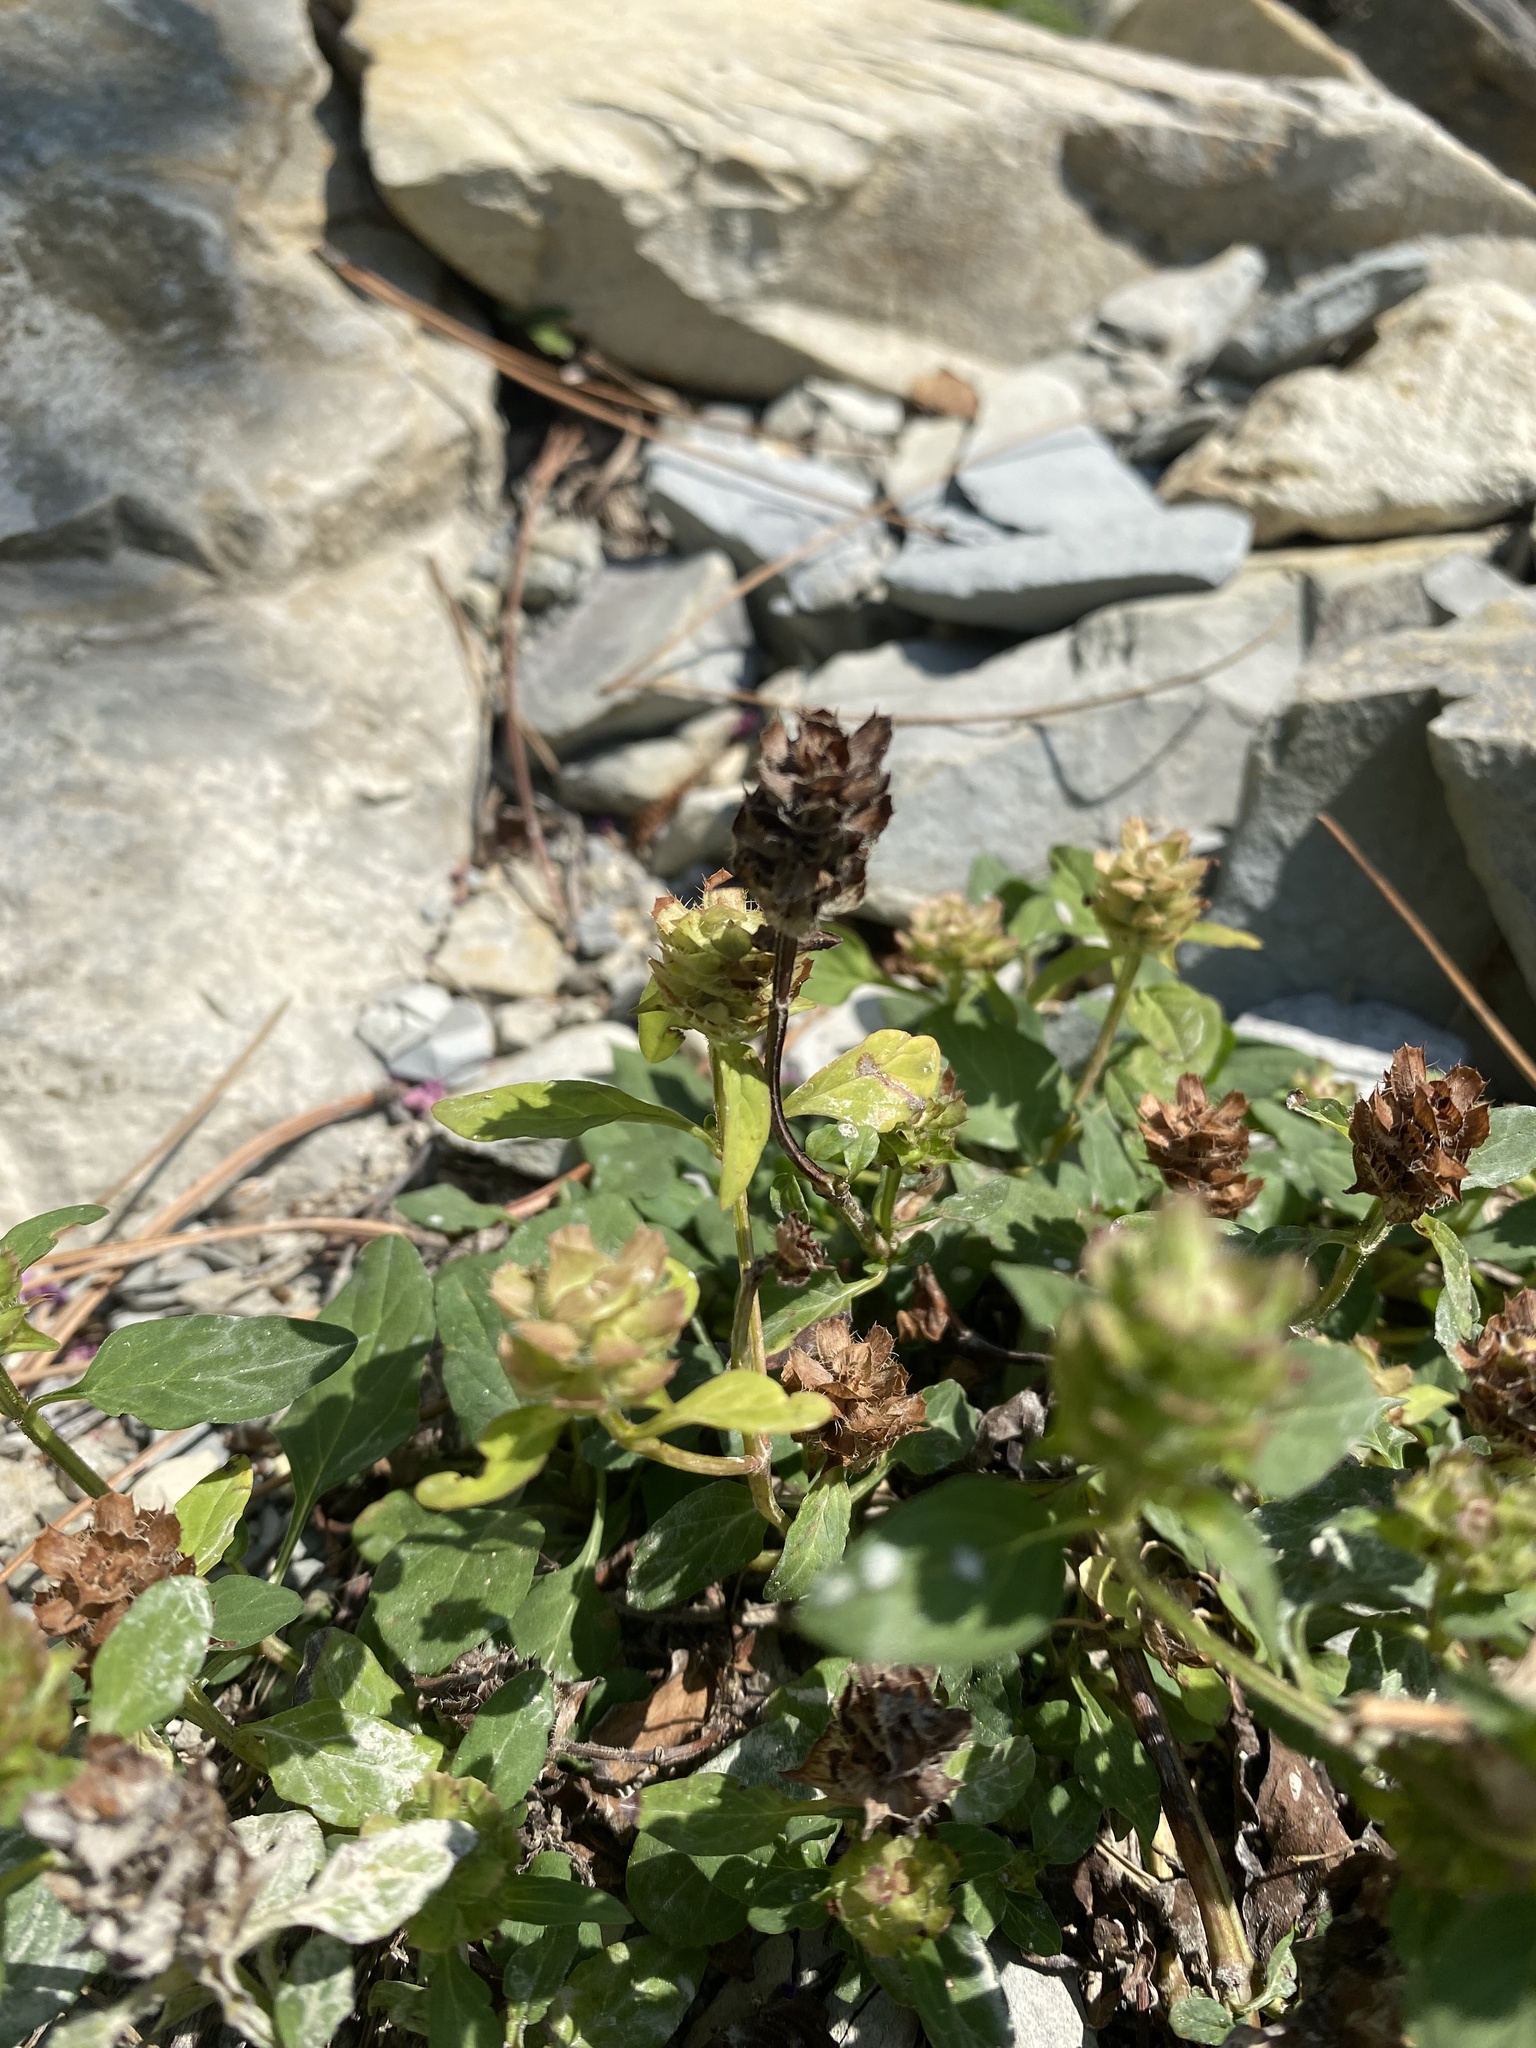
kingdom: Plantae
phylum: Tracheophyta
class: Magnoliopsida
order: Lamiales
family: Lamiaceae
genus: Prunella
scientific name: Prunella vulgaris
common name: Heal-all
